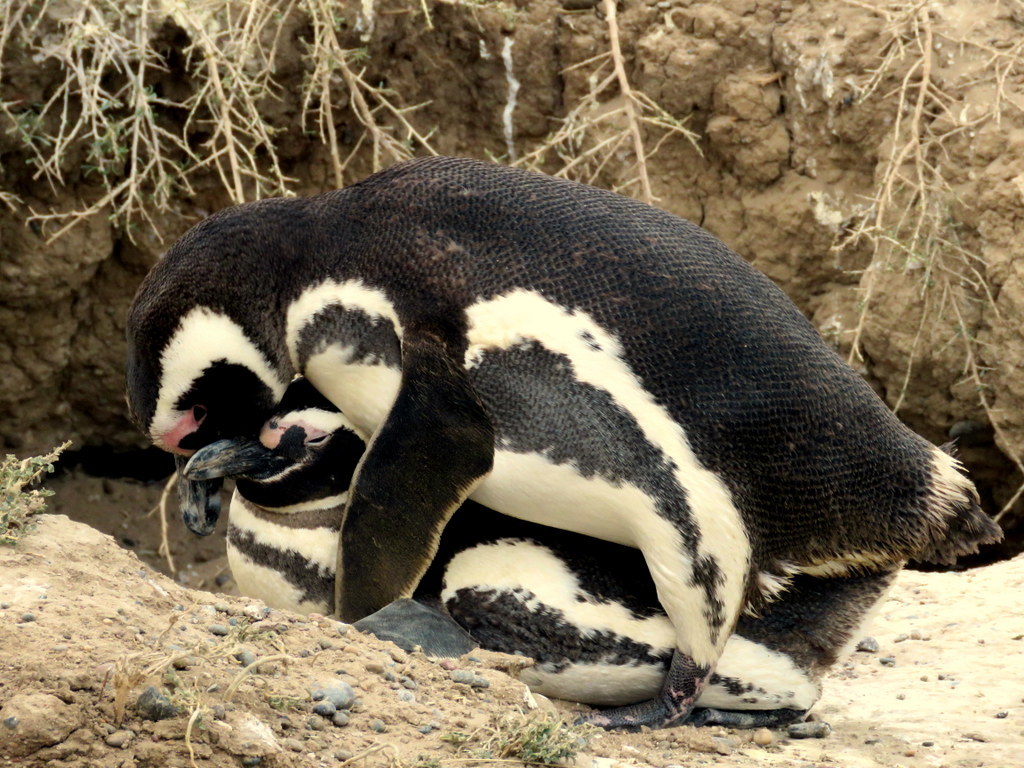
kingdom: Animalia
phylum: Chordata
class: Aves
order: Sphenisciformes
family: Spheniscidae
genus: Spheniscus
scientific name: Spheniscus magellanicus
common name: Magellanic penguin
